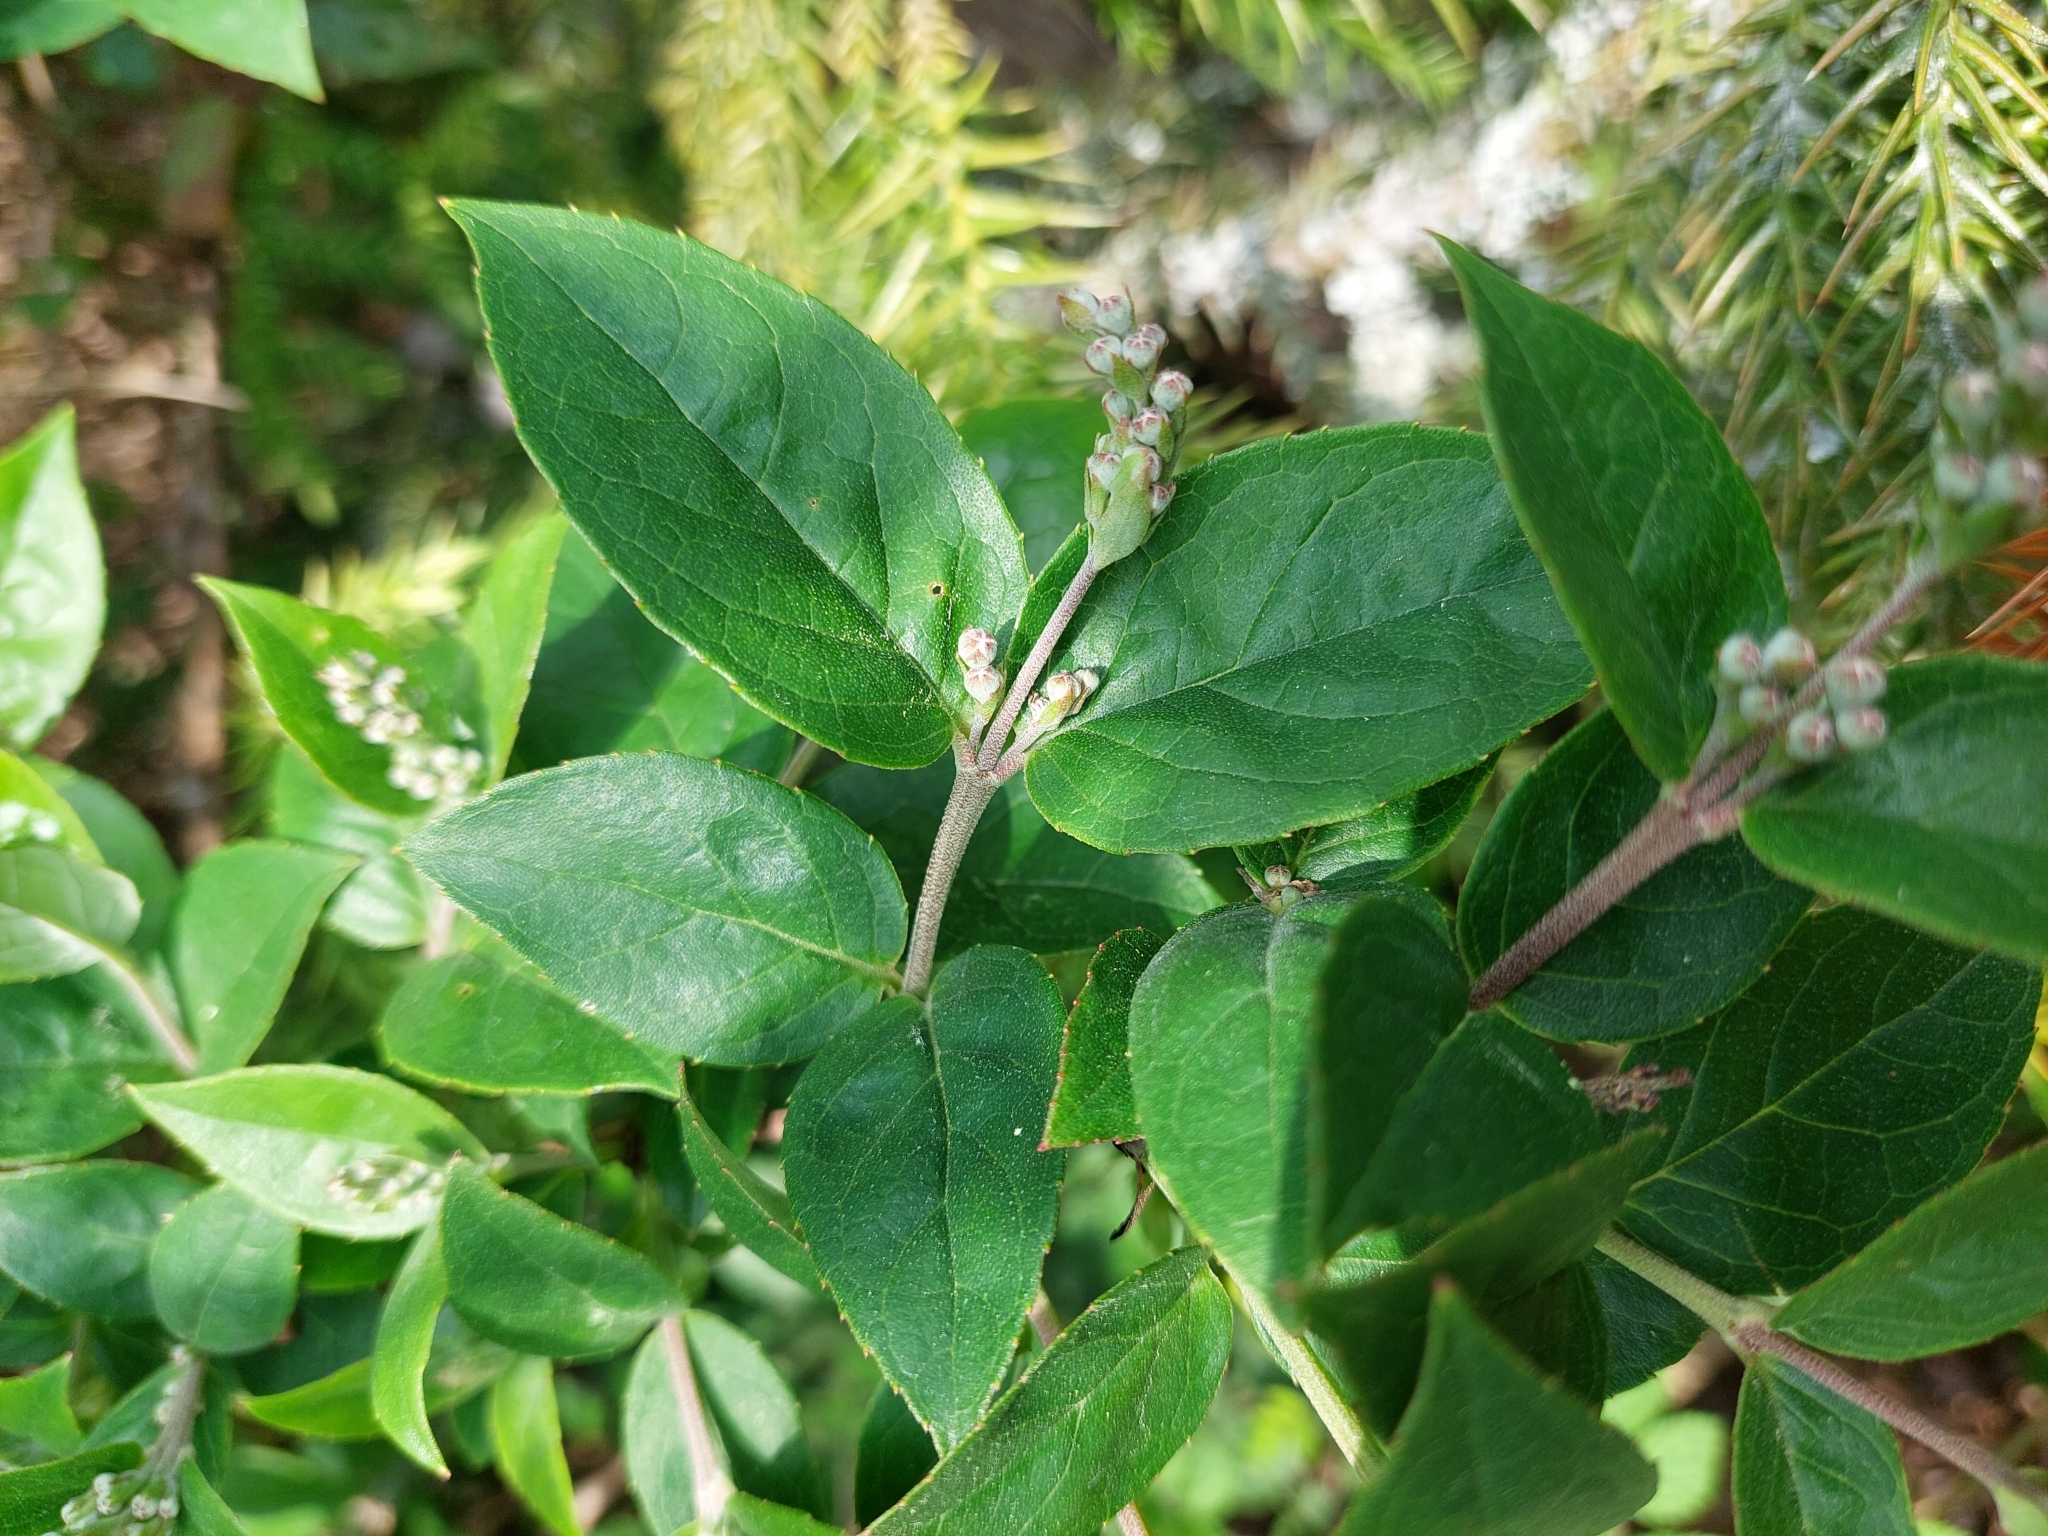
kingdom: Plantae
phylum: Tracheophyta
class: Magnoliopsida
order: Cornales
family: Hydrangeaceae
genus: Deutzia
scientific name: Deutzia pulchra
